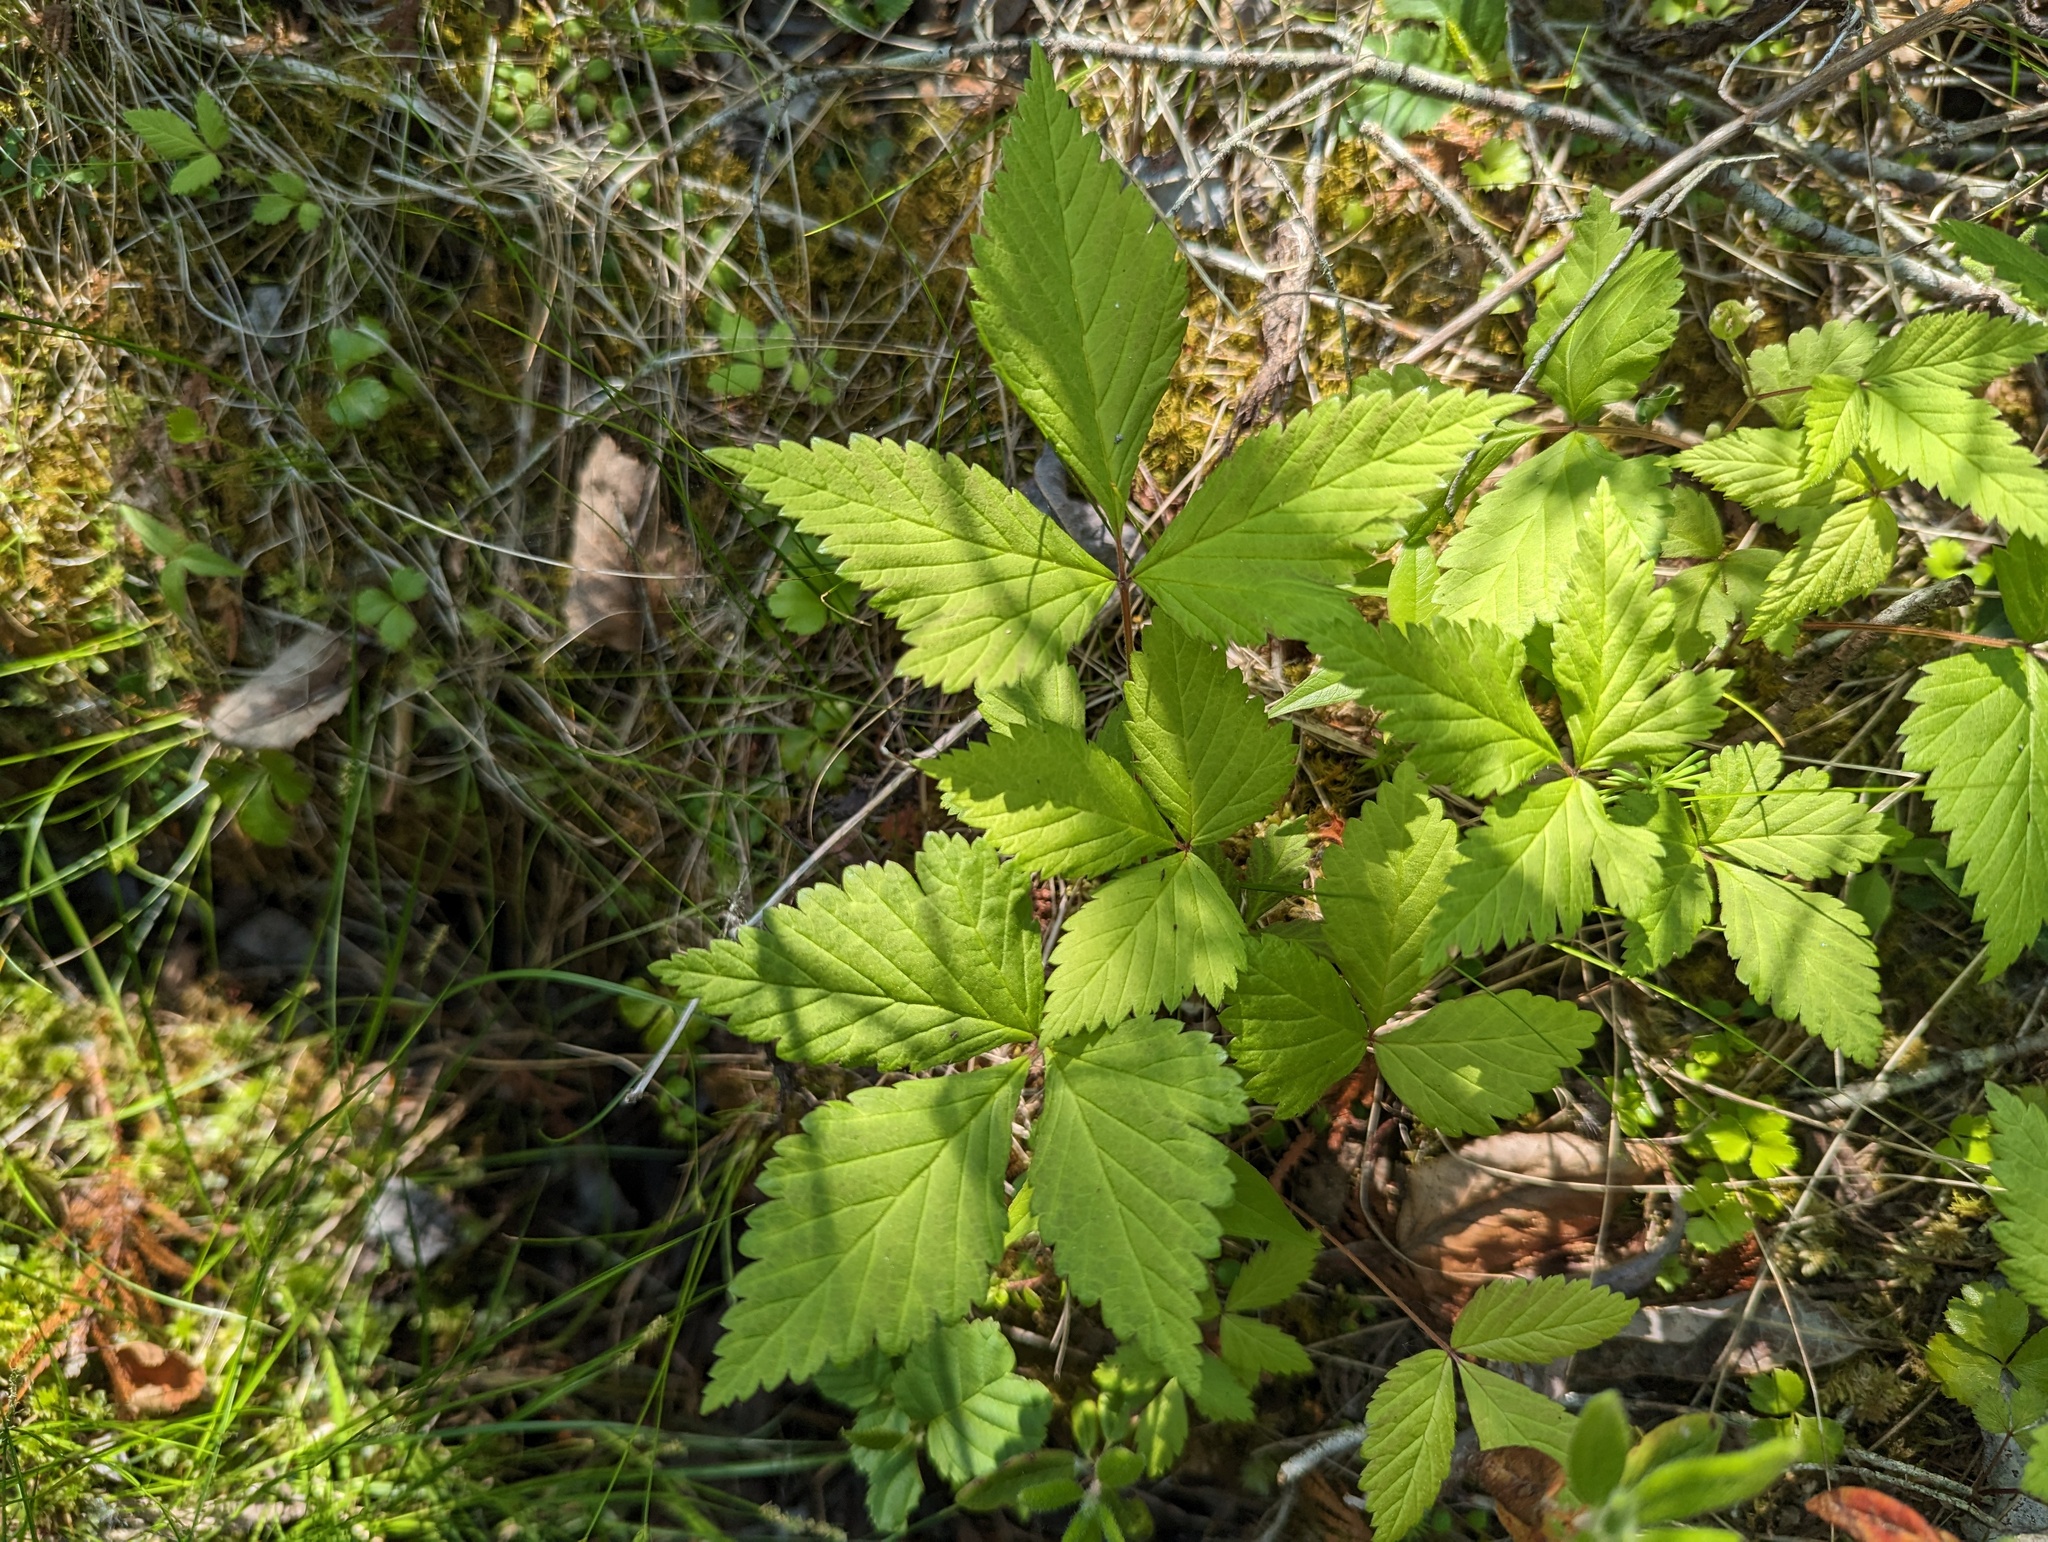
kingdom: Plantae
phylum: Tracheophyta
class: Magnoliopsida
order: Rosales
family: Rosaceae
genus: Rubus
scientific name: Rubus pubescens
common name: Dwarf raspberry
